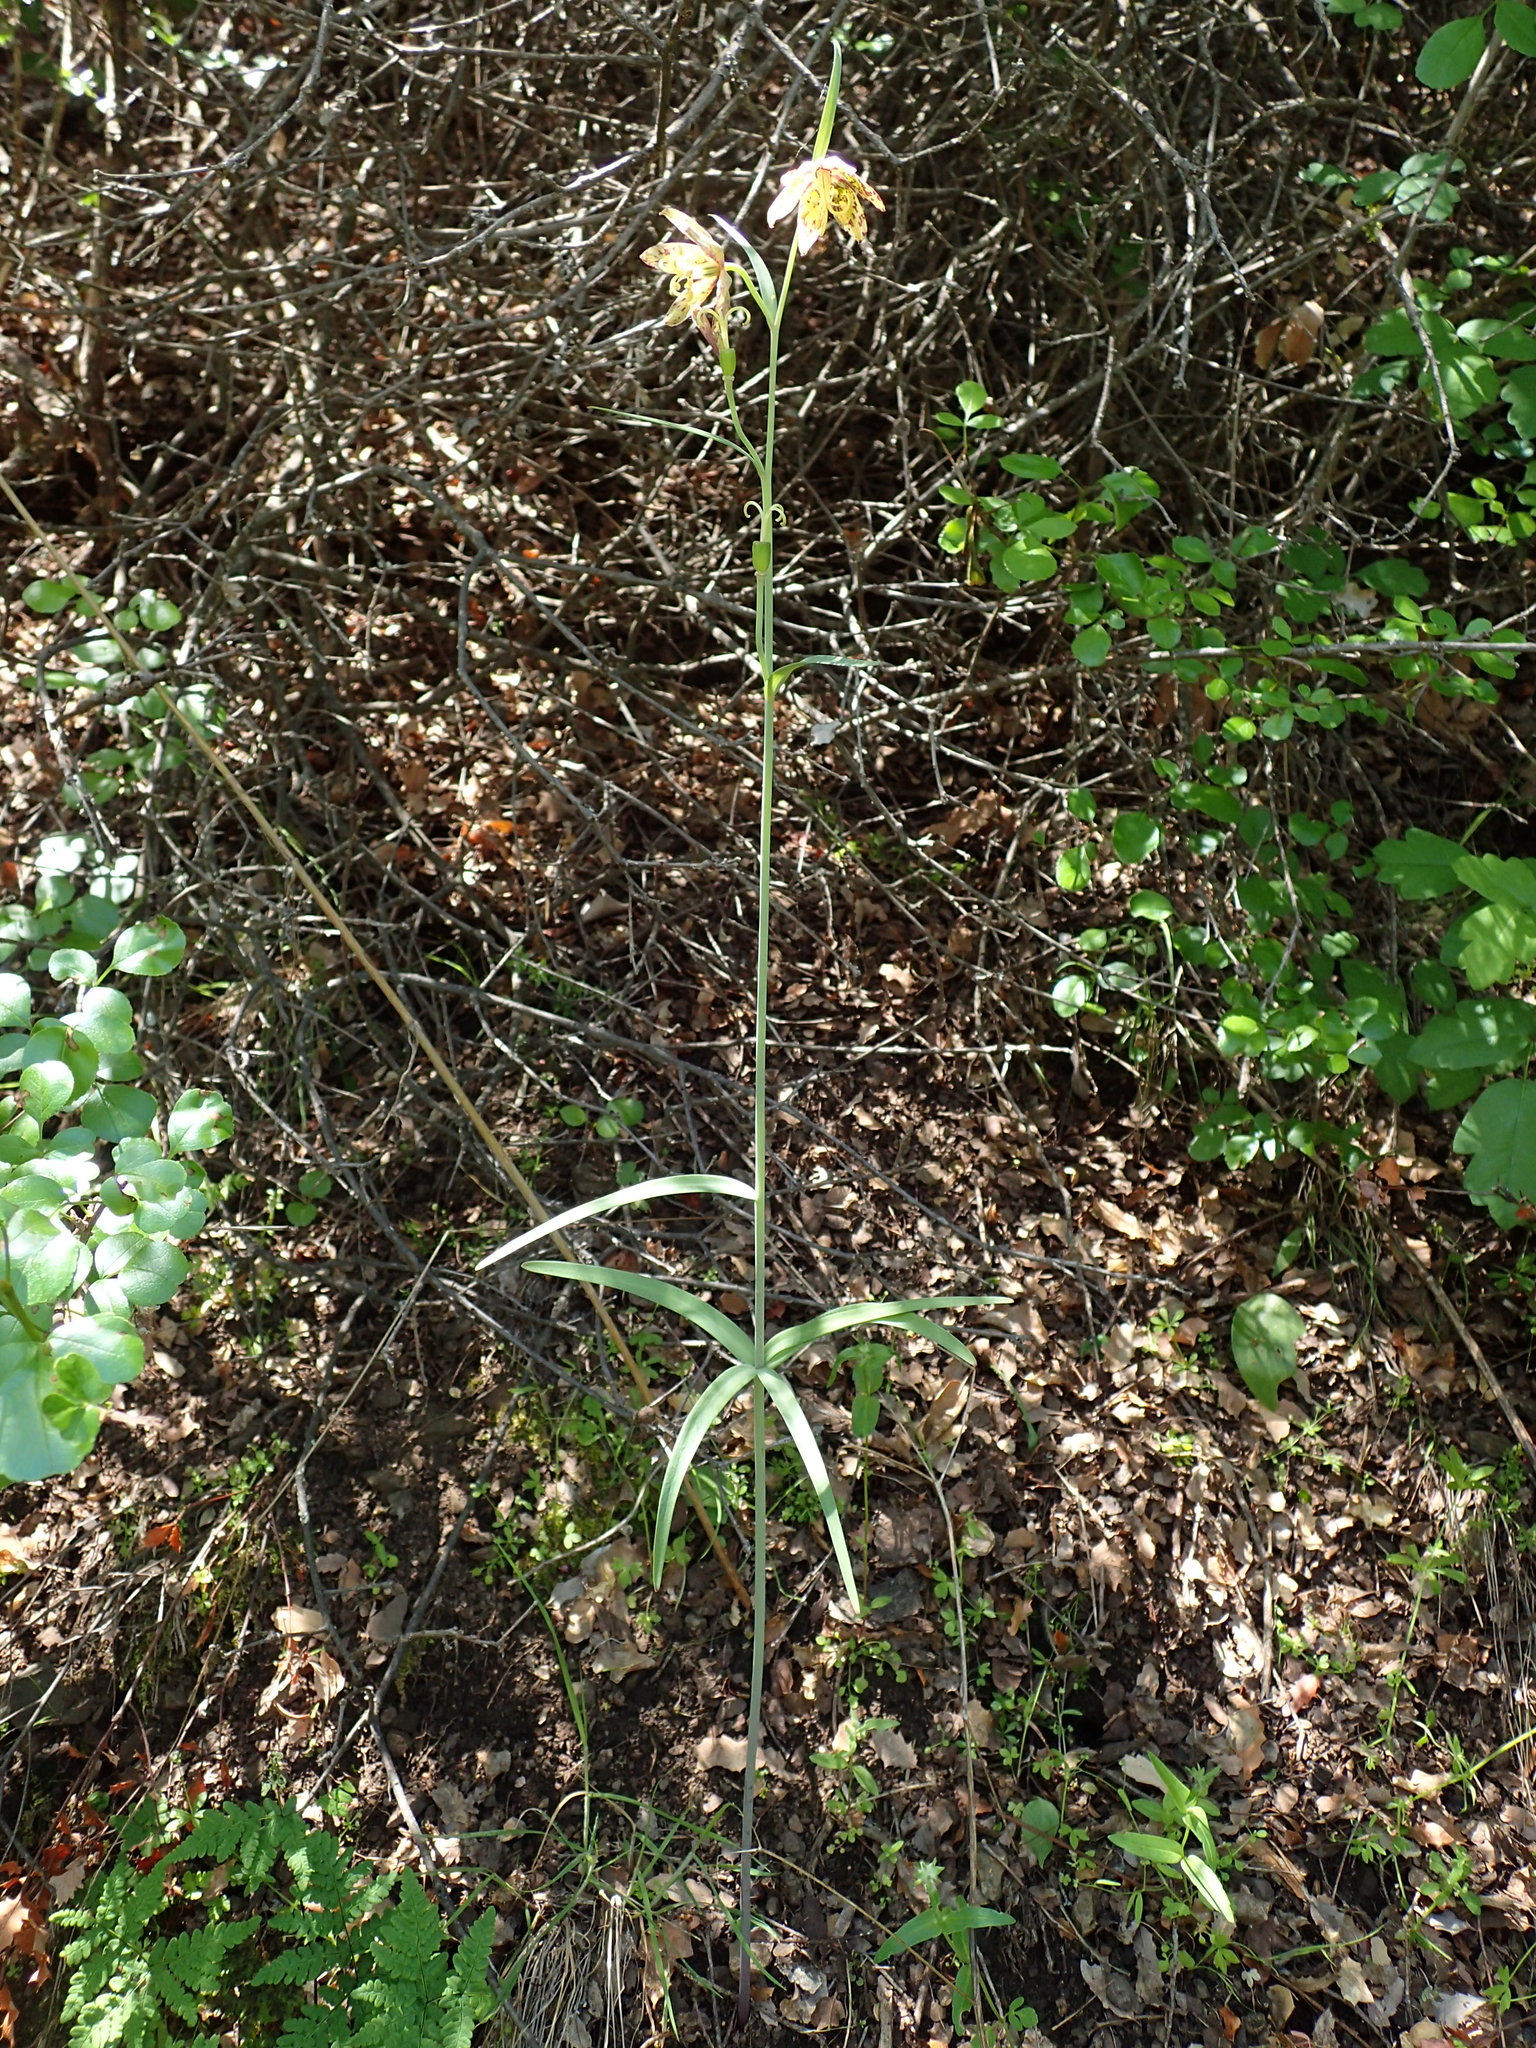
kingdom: Plantae
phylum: Tracheophyta
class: Liliopsida
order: Liliales
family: Liliaceae
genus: Fritillaria
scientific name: Fritillaria ojaiensis
